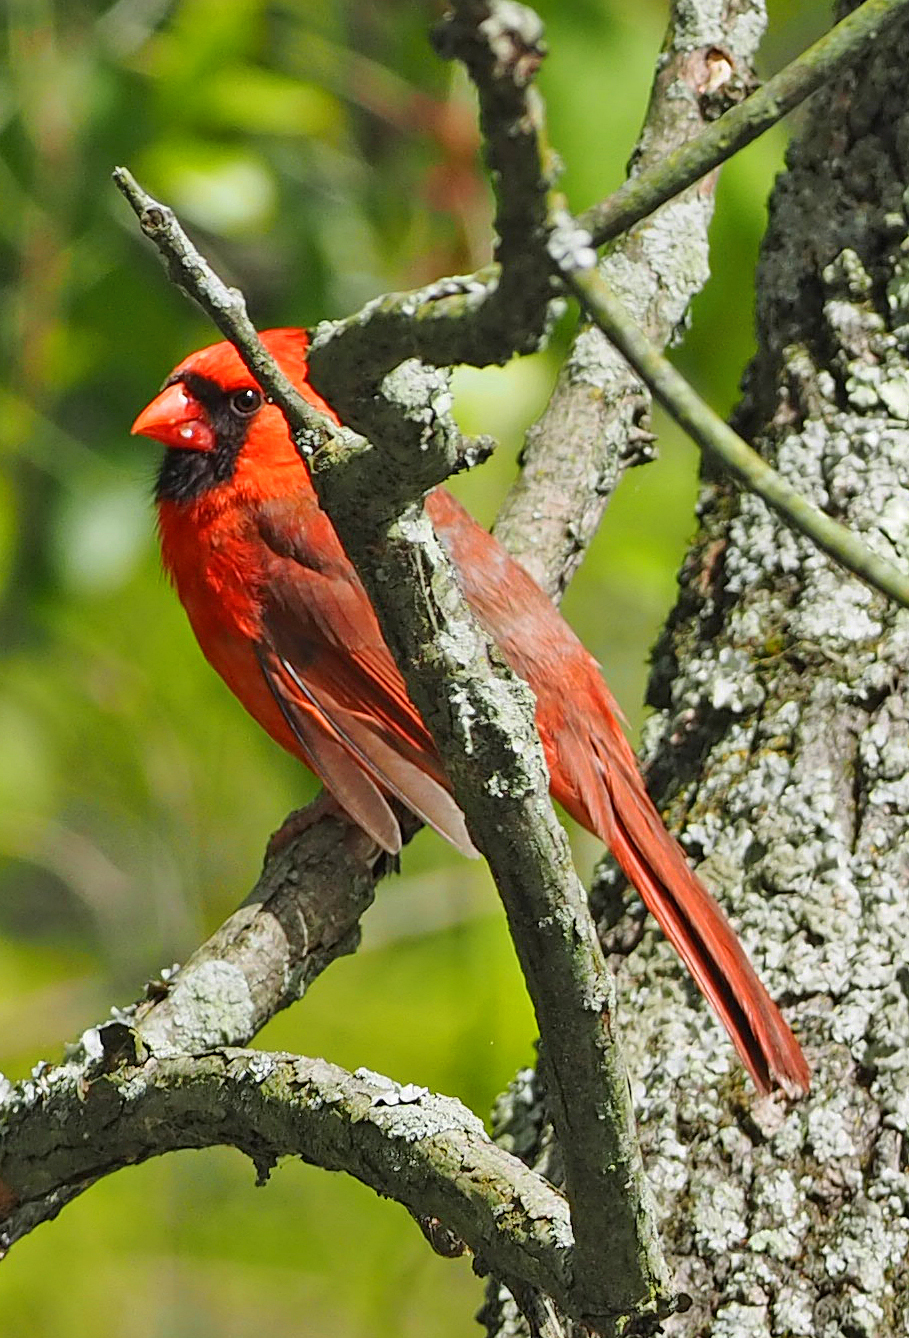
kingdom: Animalia
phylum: Chordata
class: Aves
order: Passeriformes
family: Cardinalidae
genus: Cardinalis
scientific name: Cardinalis cardinalis
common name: Northern cardinal
